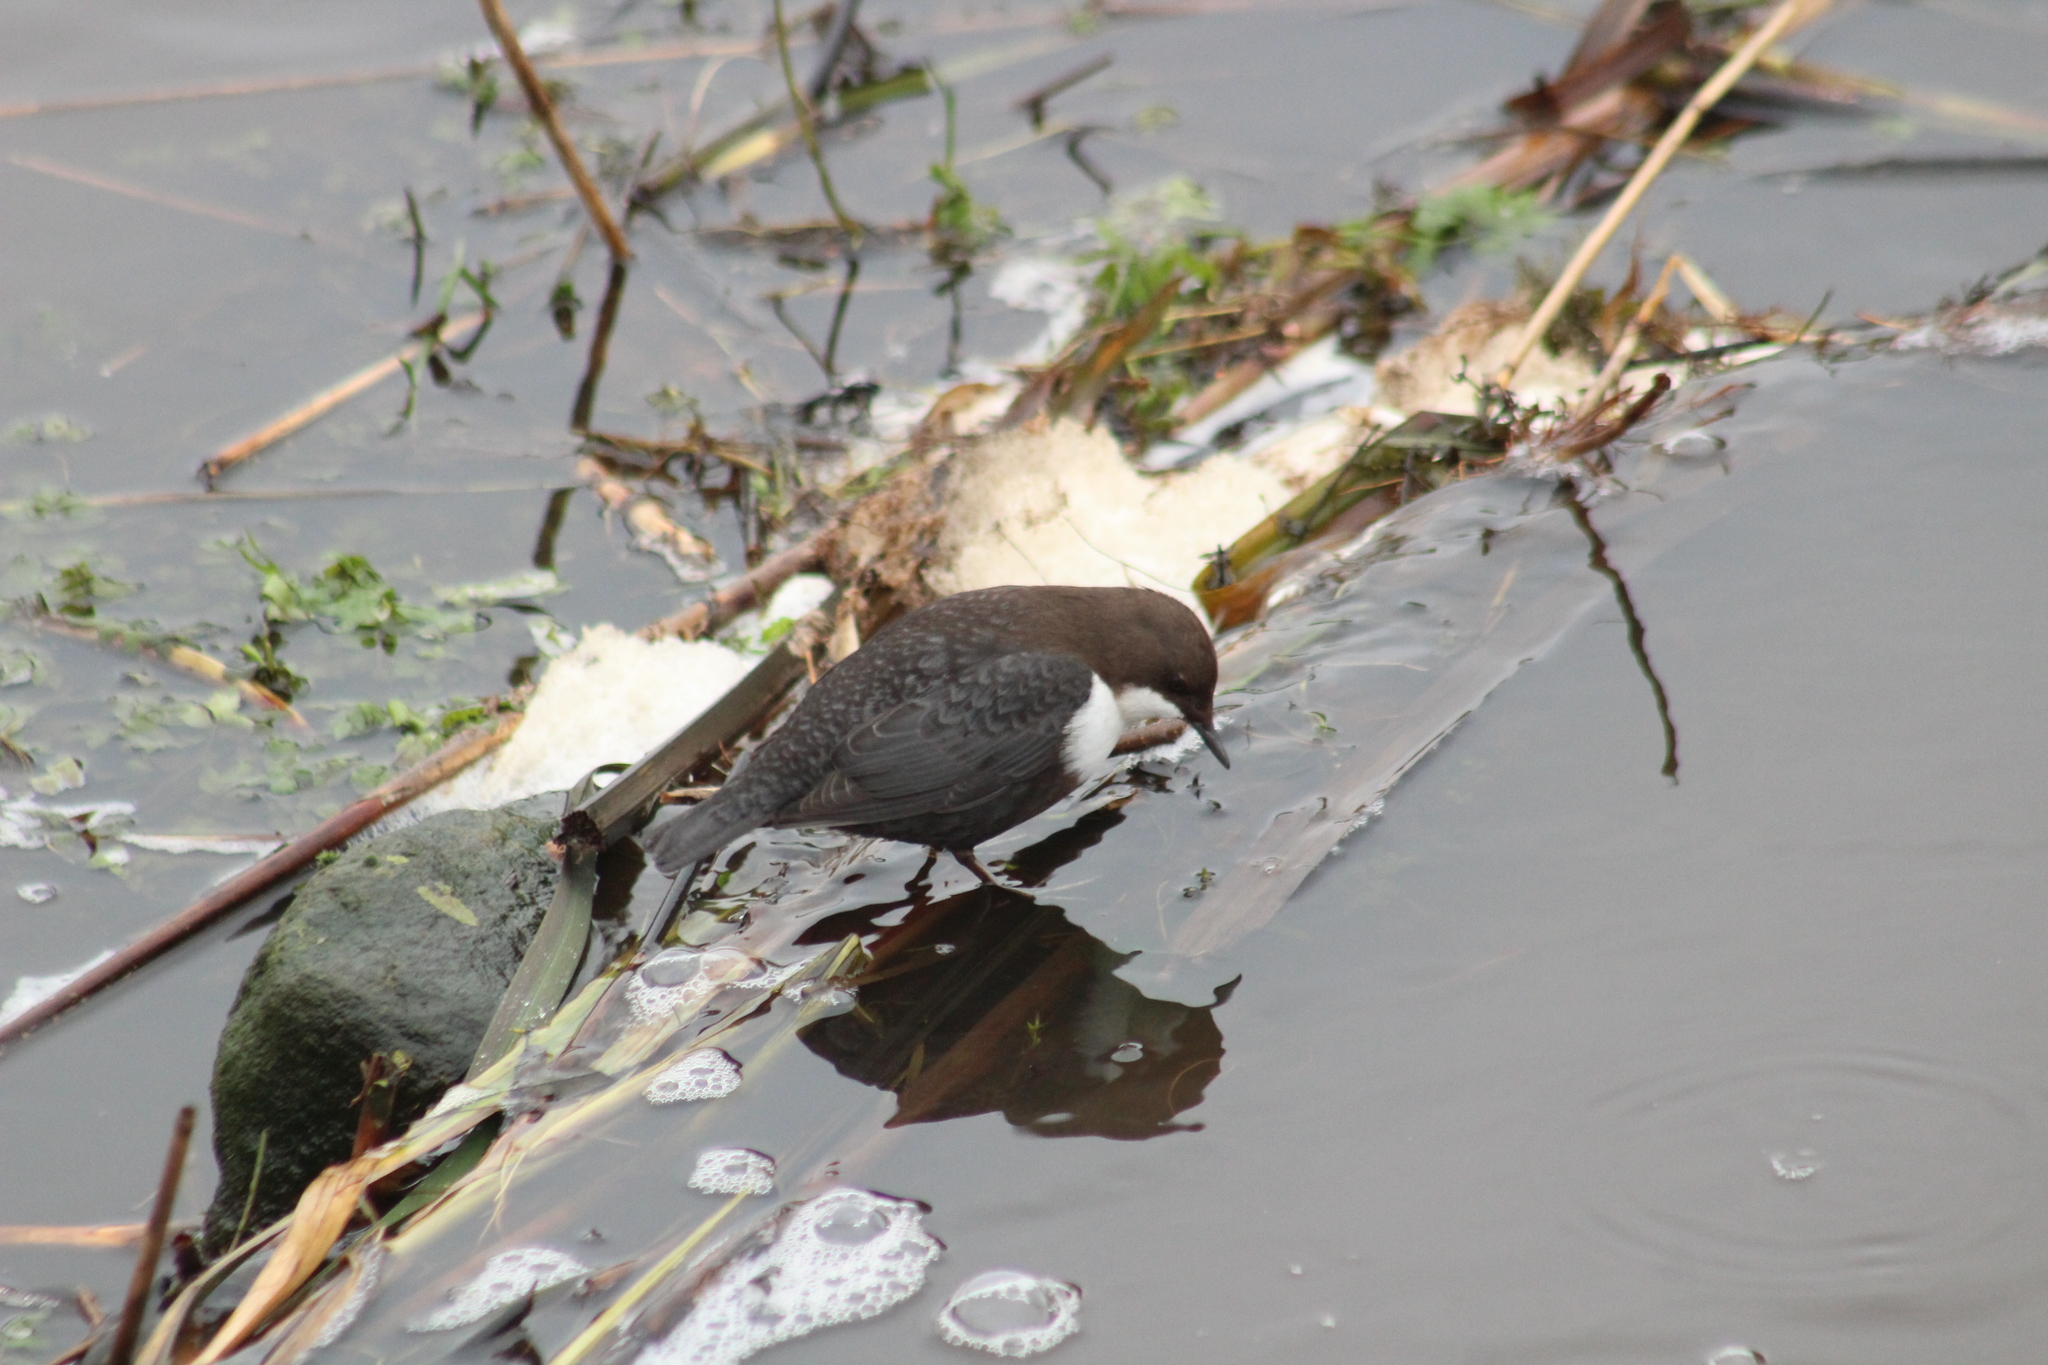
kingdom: Animalia
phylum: Chordata
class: Aves
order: Passeriformes
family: Cinclidae
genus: Cinclus
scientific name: Cinclus cinclus
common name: White-throated dipper
